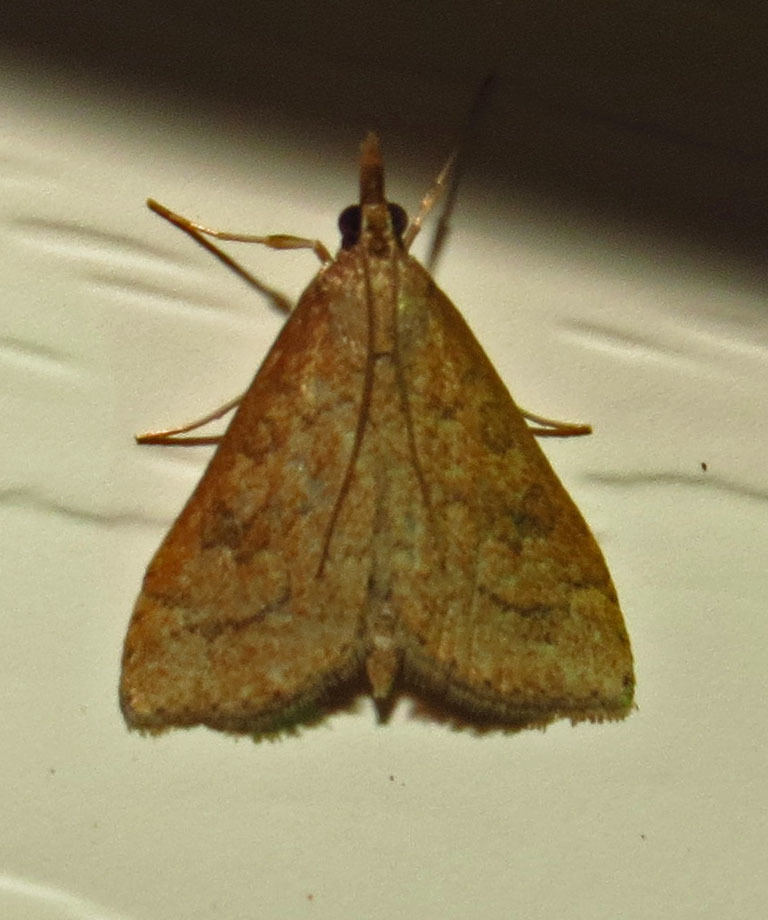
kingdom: Animalia
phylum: Arthropoda
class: Insecta
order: Lepidoptera
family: Crambidae
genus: Udea
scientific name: Udea rubigalis
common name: Celery leaftier moth
